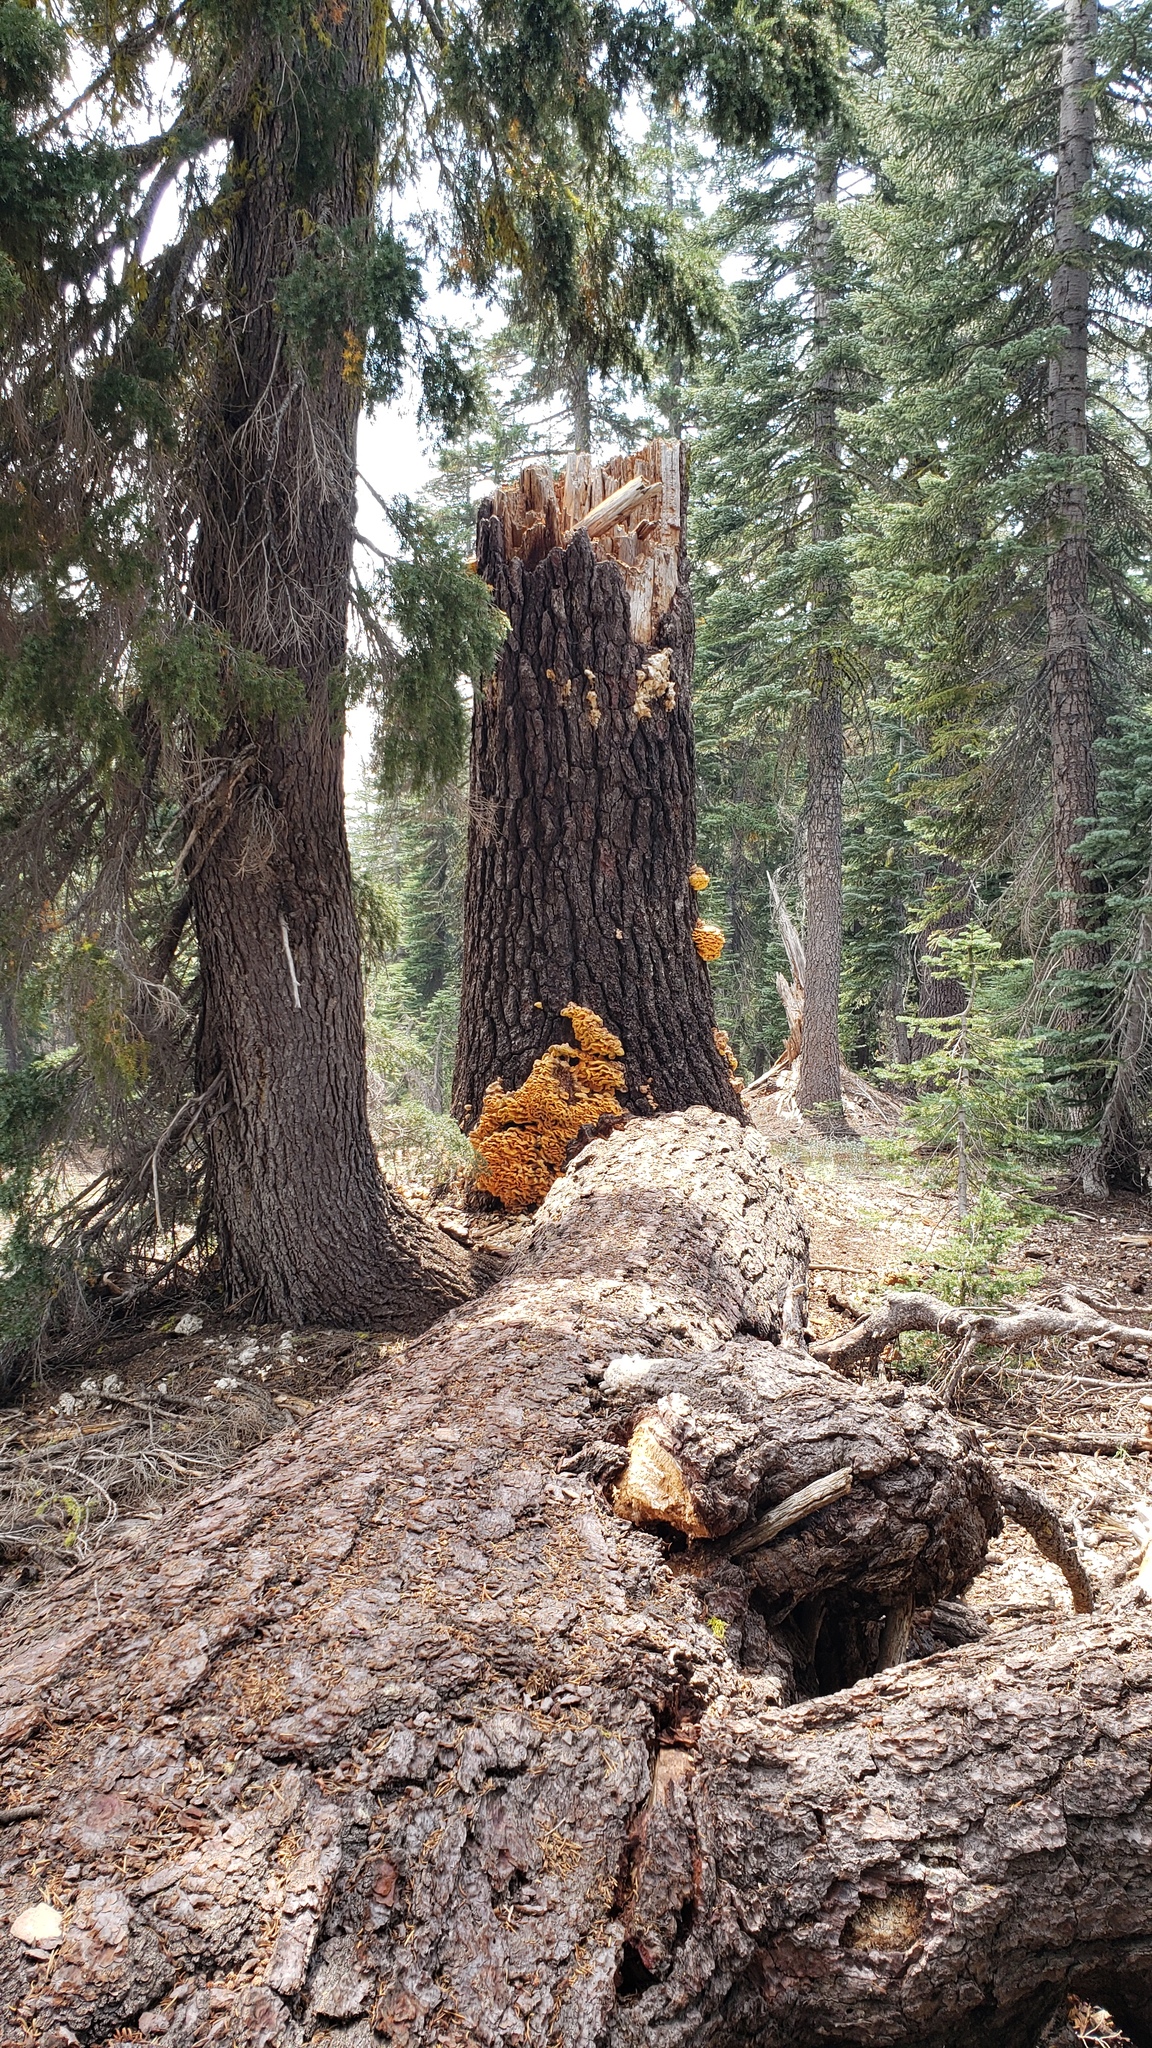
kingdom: Fungi
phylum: Basidiomycota
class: Agaricomycetes
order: Polyporales
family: Laetiporaceae
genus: Laetiporus
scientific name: Laetiporus conifericola
